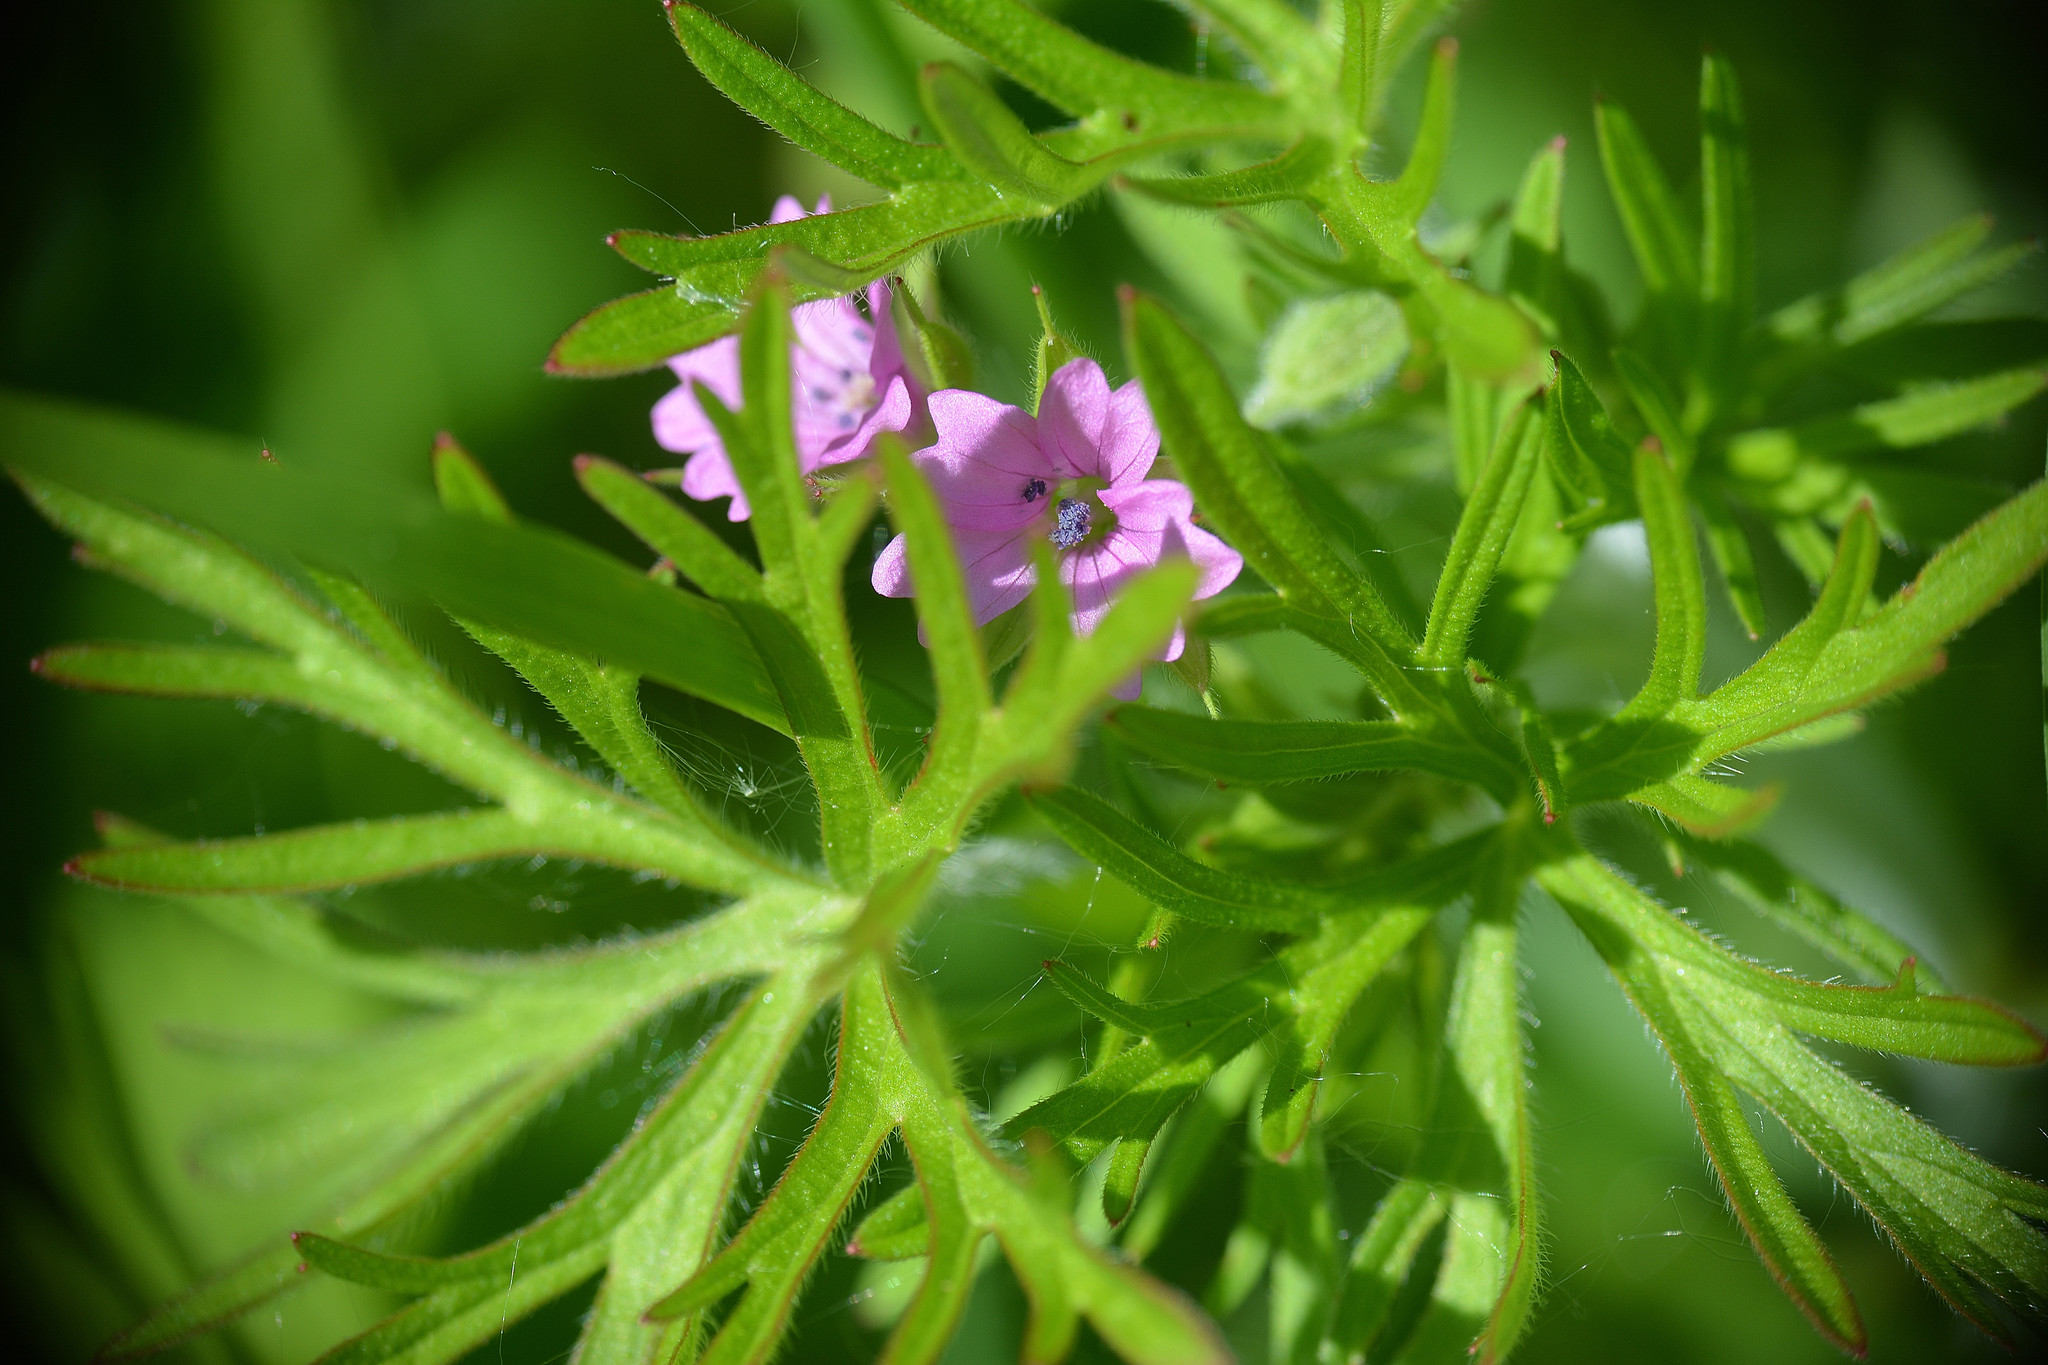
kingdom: Plantae
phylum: Tracheophyta
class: Magnoliopsida
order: Geraniales
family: Geraniaceae
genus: Geranium
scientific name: Geranium dissectum
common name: Cut-leaved crane's-bill
